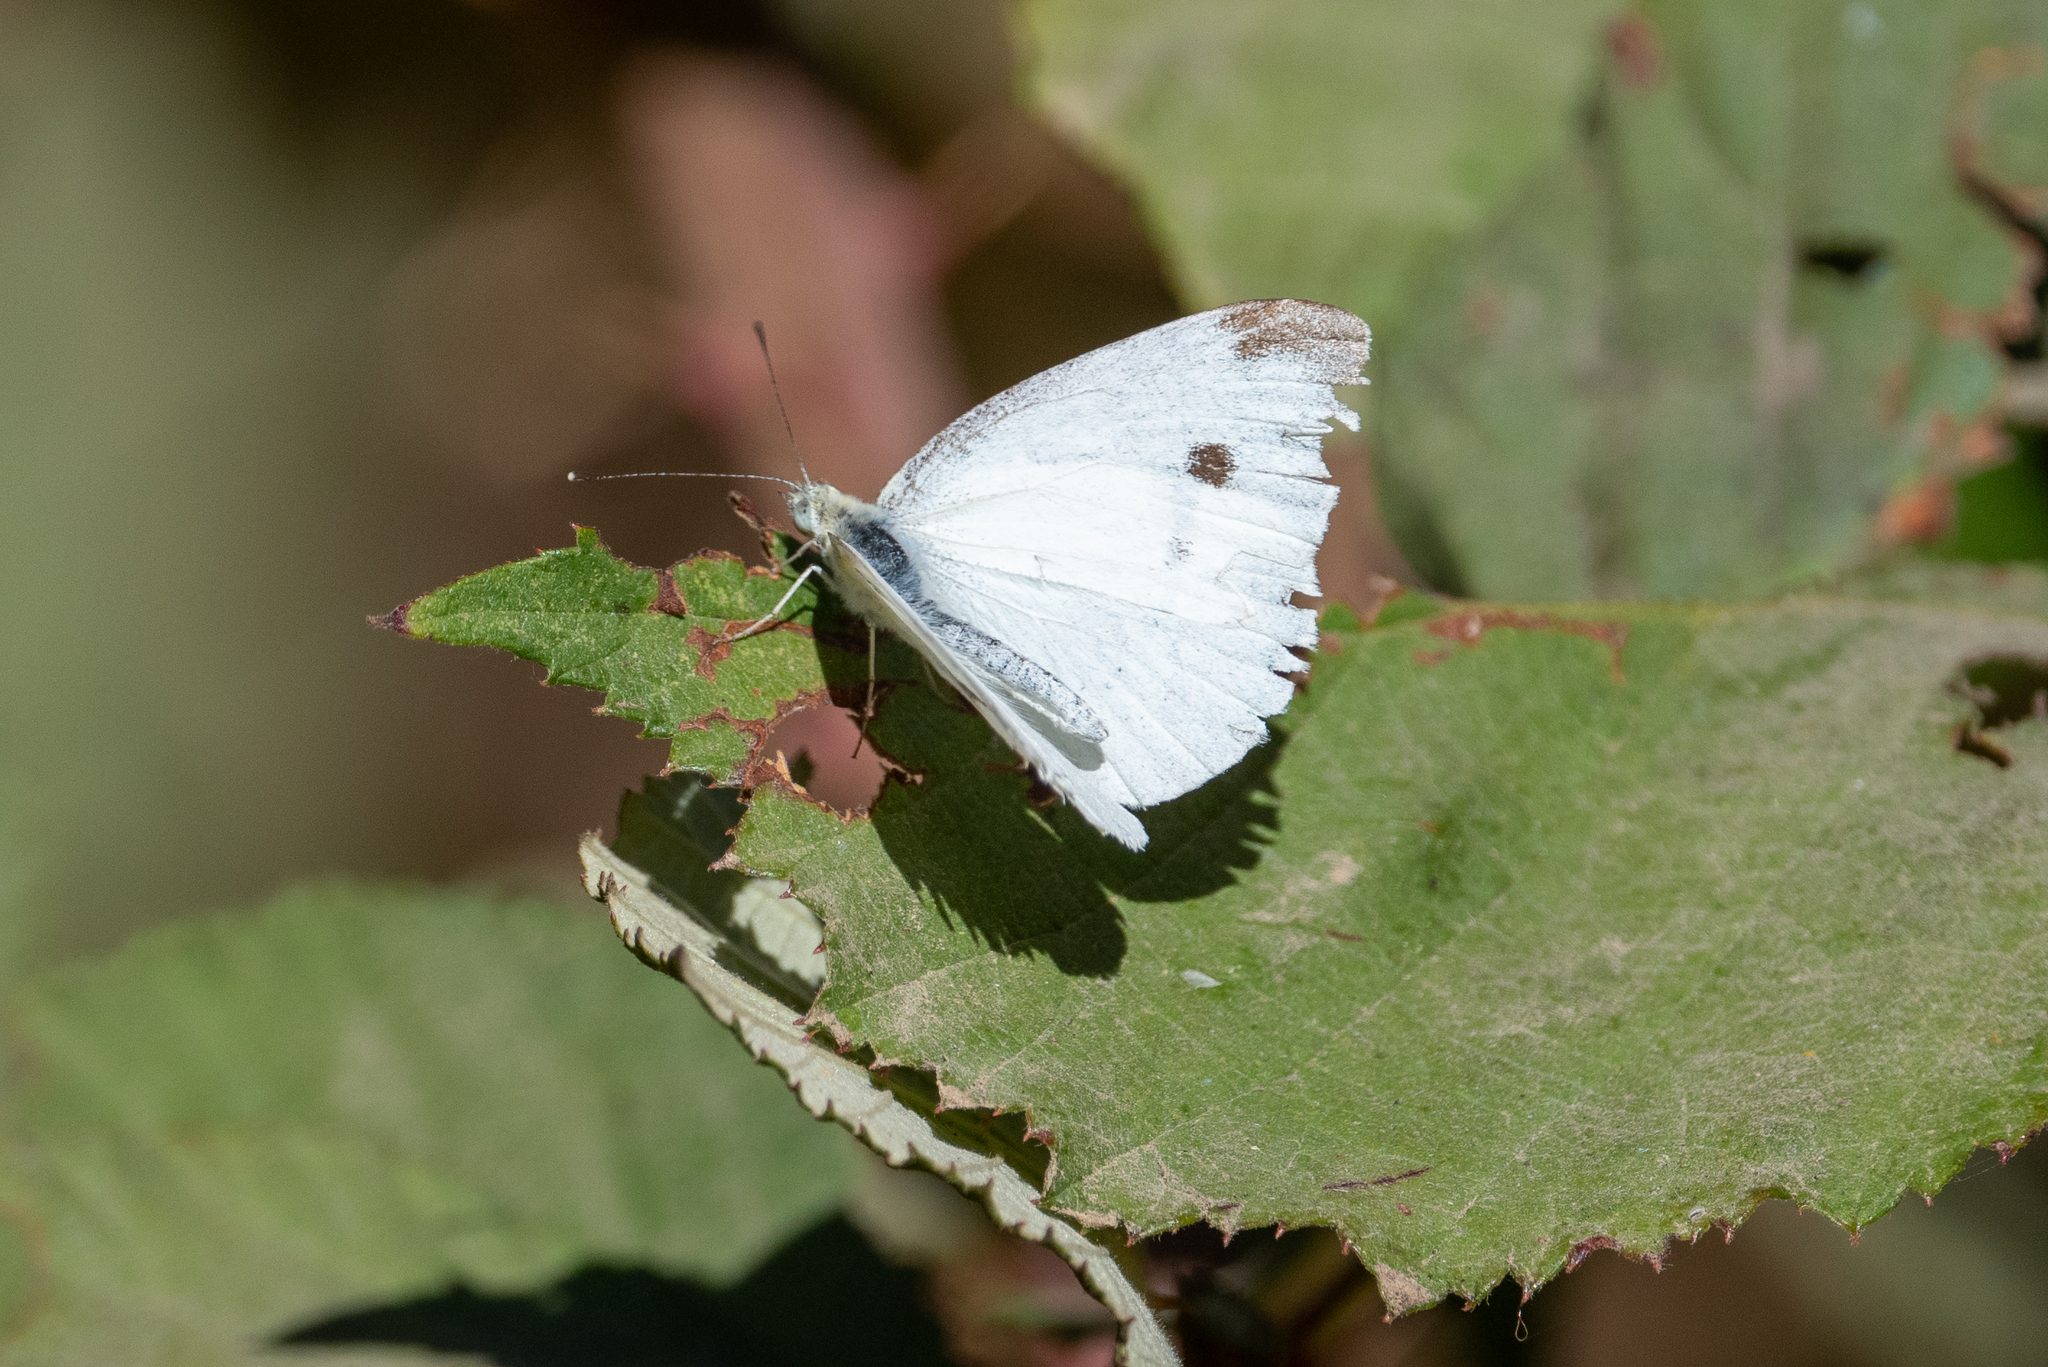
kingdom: Animalia
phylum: Arthropoda
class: Insecta
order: Lepidoptera
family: Pieridae
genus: Pieris
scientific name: Pieris rapae
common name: Small white
